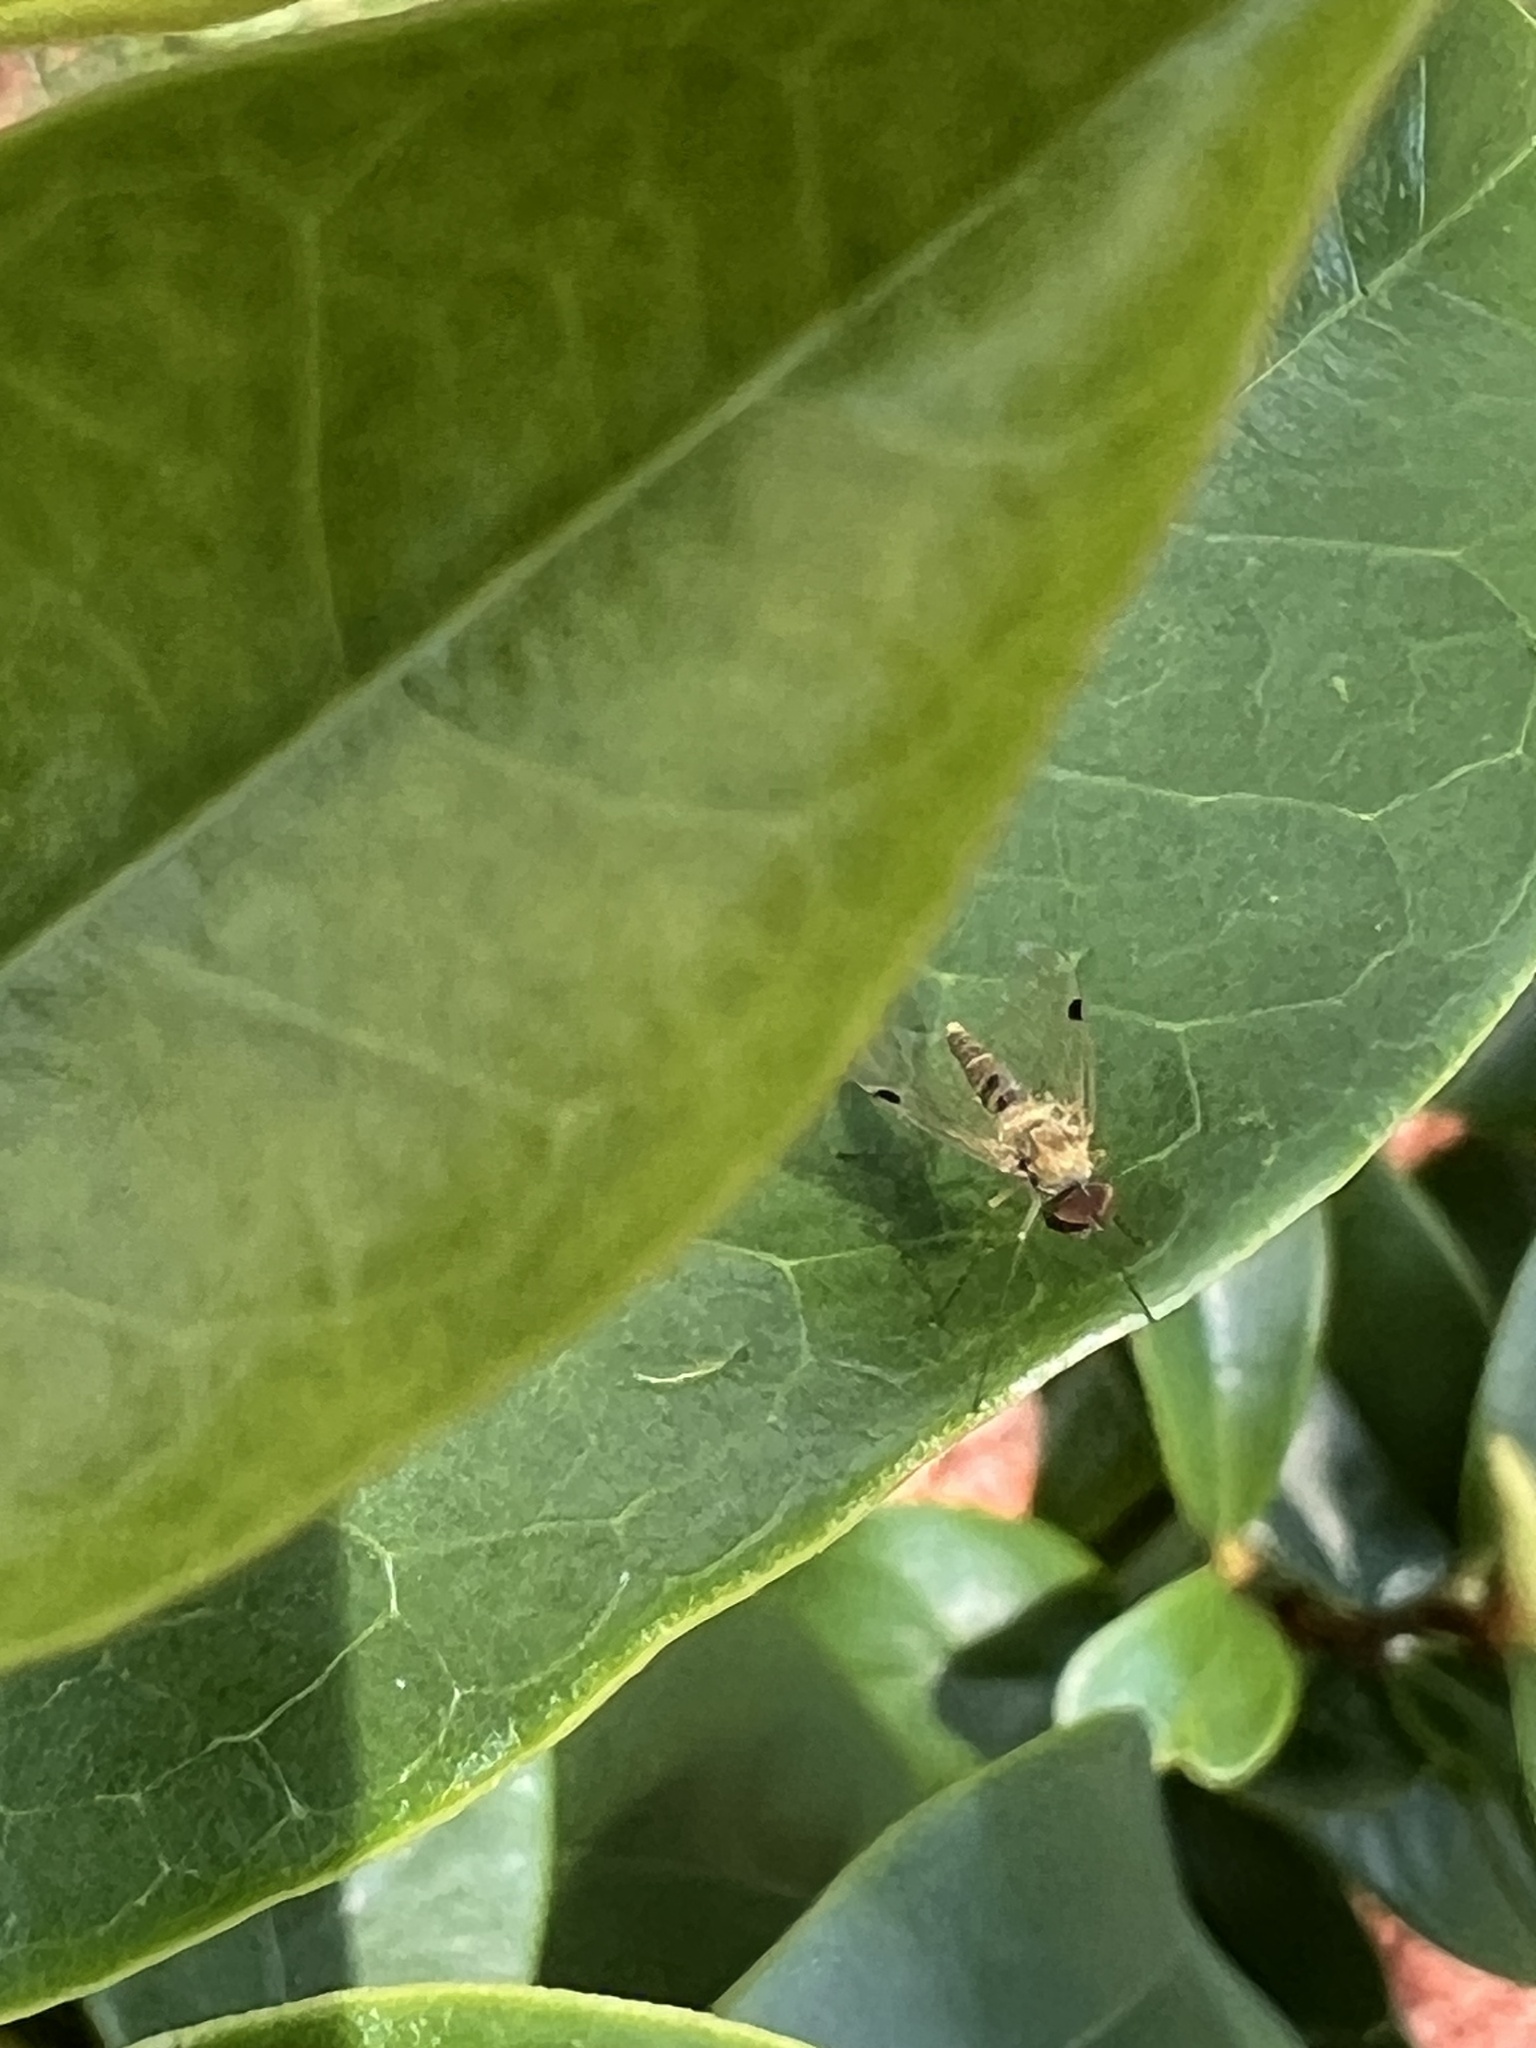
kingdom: Animalia
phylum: Arthropoda
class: Insecta
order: Diptera
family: Rhagionidae
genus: Chrysopilus
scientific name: Chrysopilus modestus
